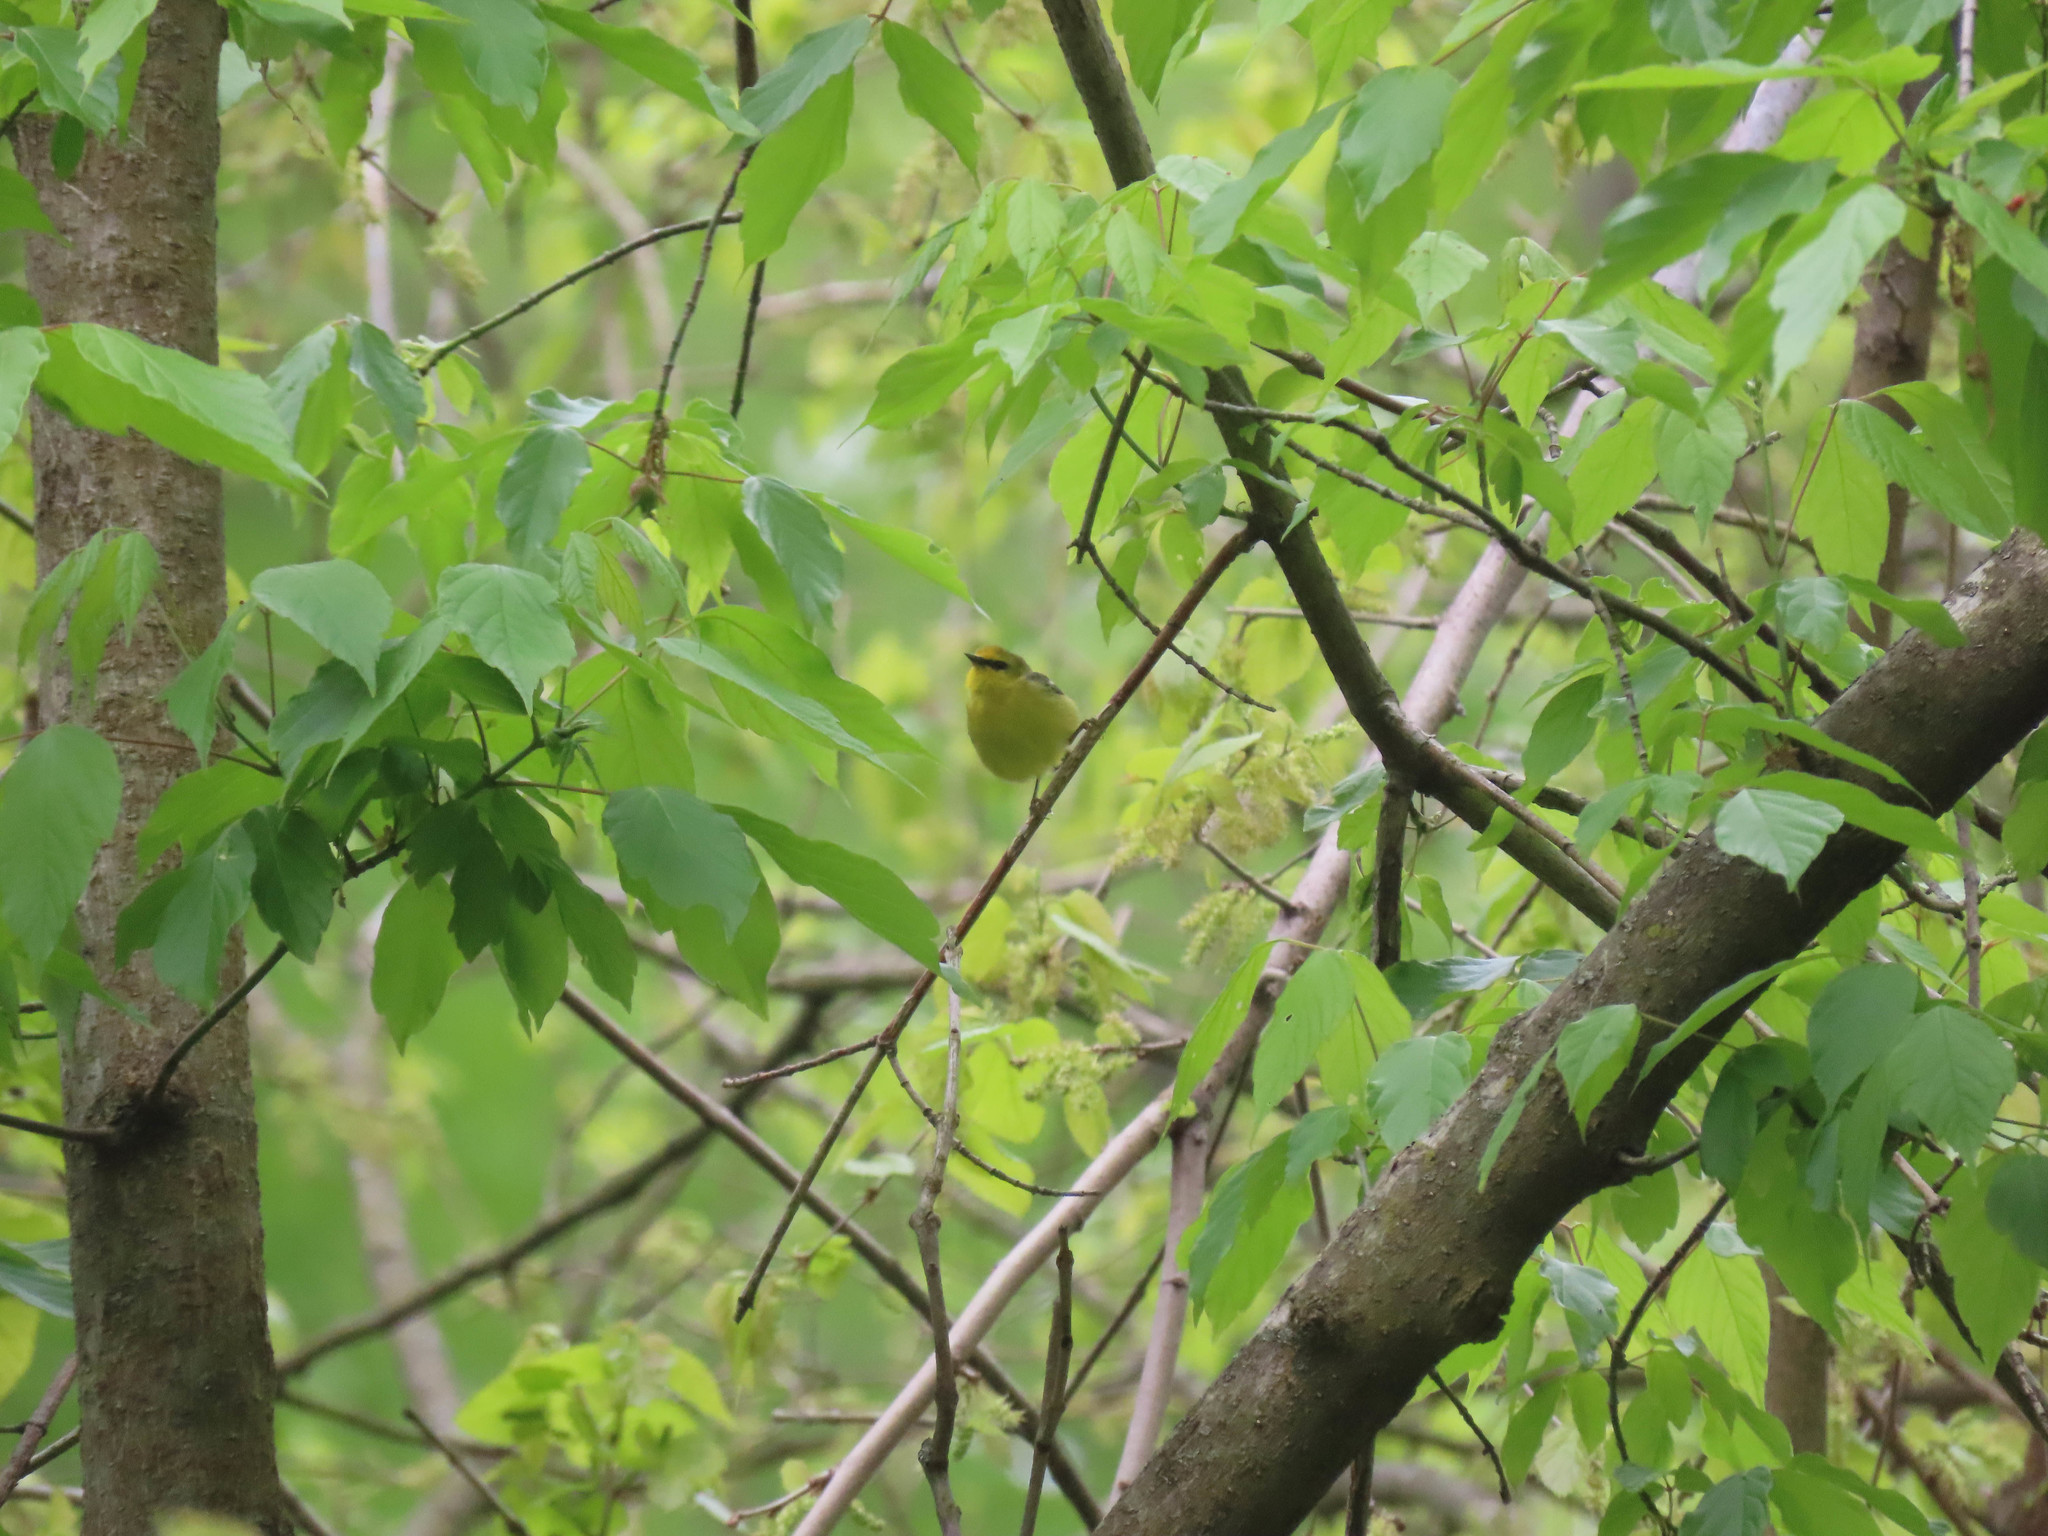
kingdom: Animalia
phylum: Chordata
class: Aves
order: Passeriformes
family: Parulidae
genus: Vermivora
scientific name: Vermivora cyanoptera
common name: Blue-winged warbler
